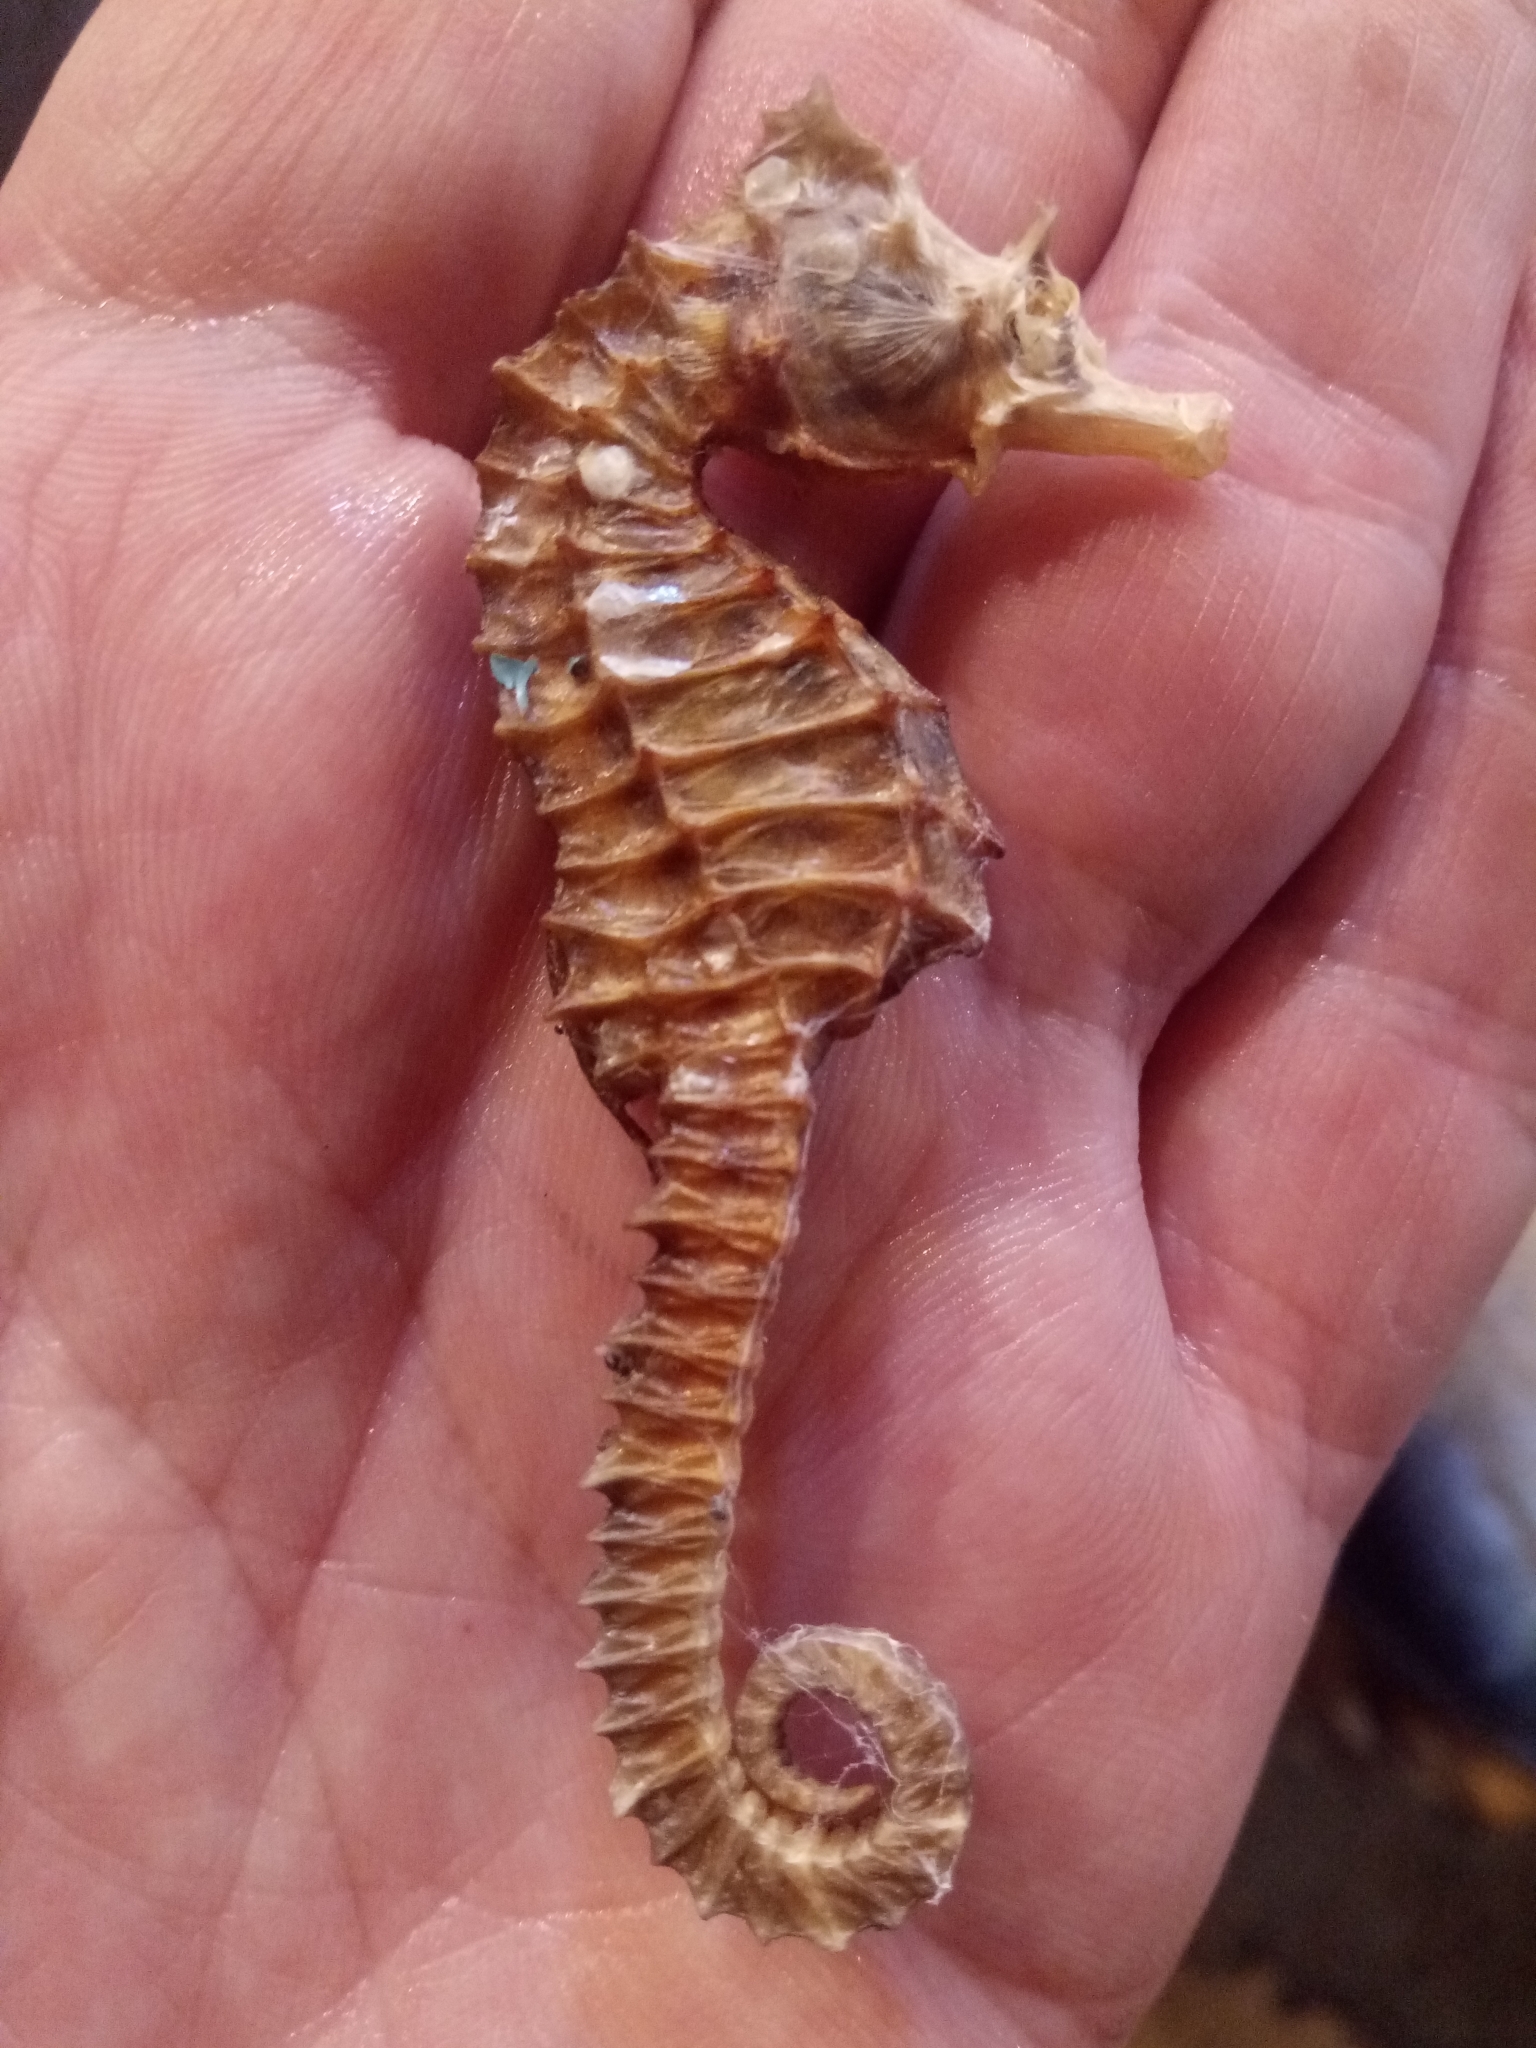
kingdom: Animalia
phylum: Chordata
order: Syngnathiformes
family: Syngnathidae
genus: Hippocampus
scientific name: Hippocampus hippocampus
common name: Short-snouted seahorse
